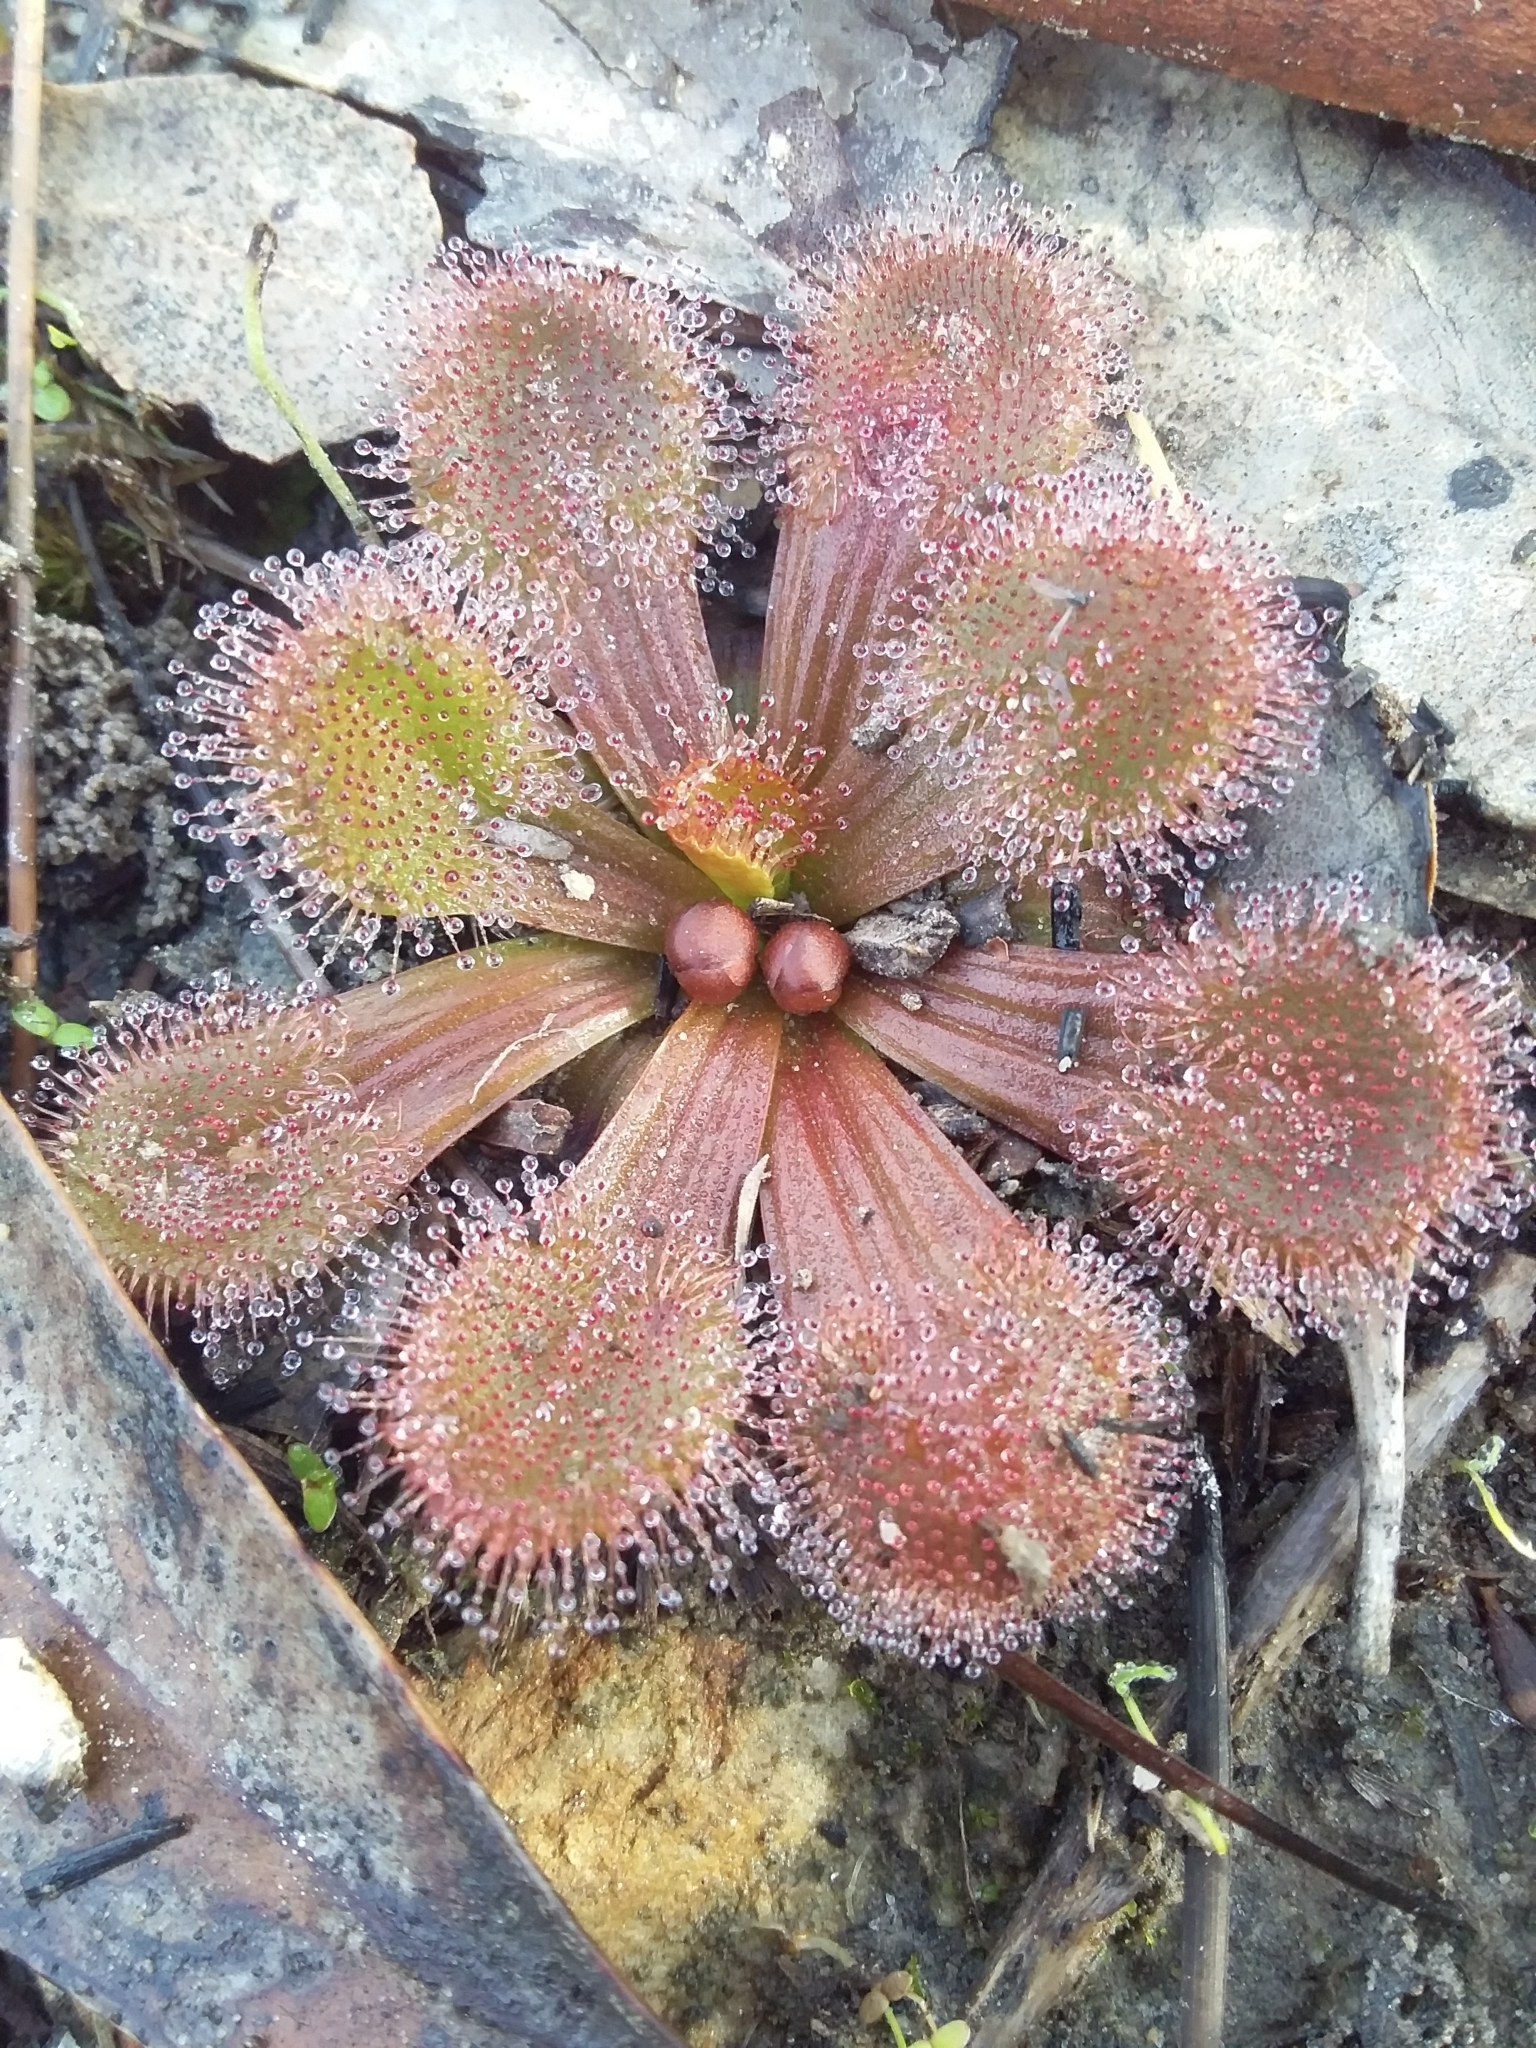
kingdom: Plantae
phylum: Tracheophyta
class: Magnoliopsida
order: Caryophyllales
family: Droseraceae
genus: Drosera
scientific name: Drosera whittakeri
